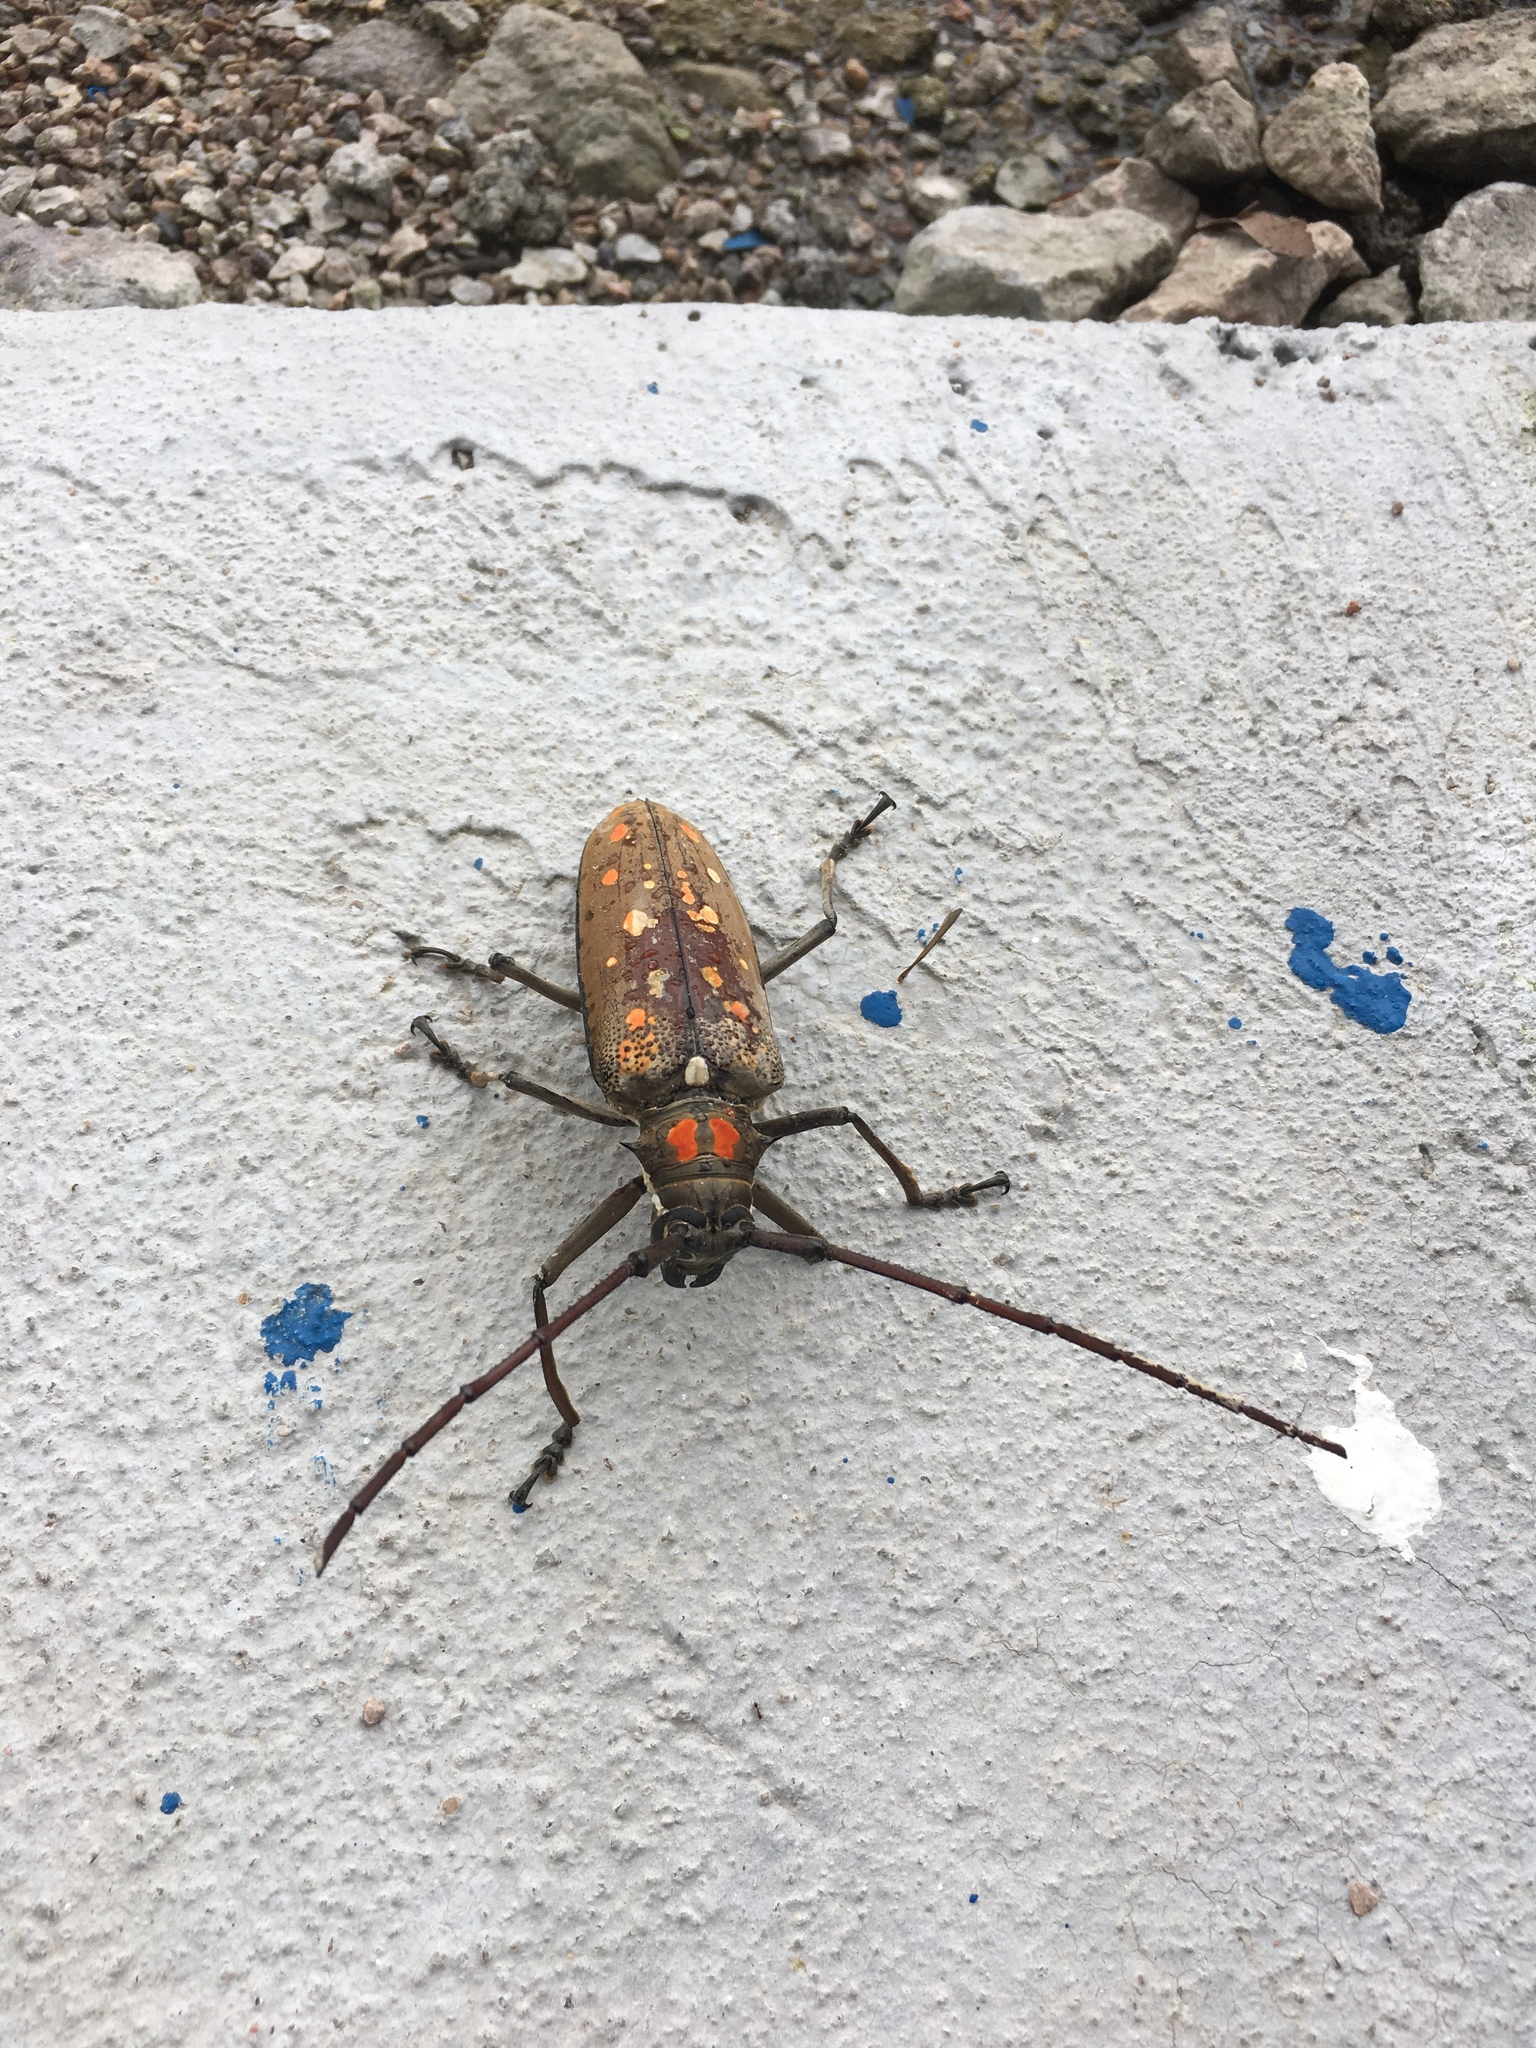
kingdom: Animalia
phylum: Arthropoda
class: Insecta
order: Coleoptera
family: Cerambycidae
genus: Batocera
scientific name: Batocera davidis
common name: Long-horned beetle
